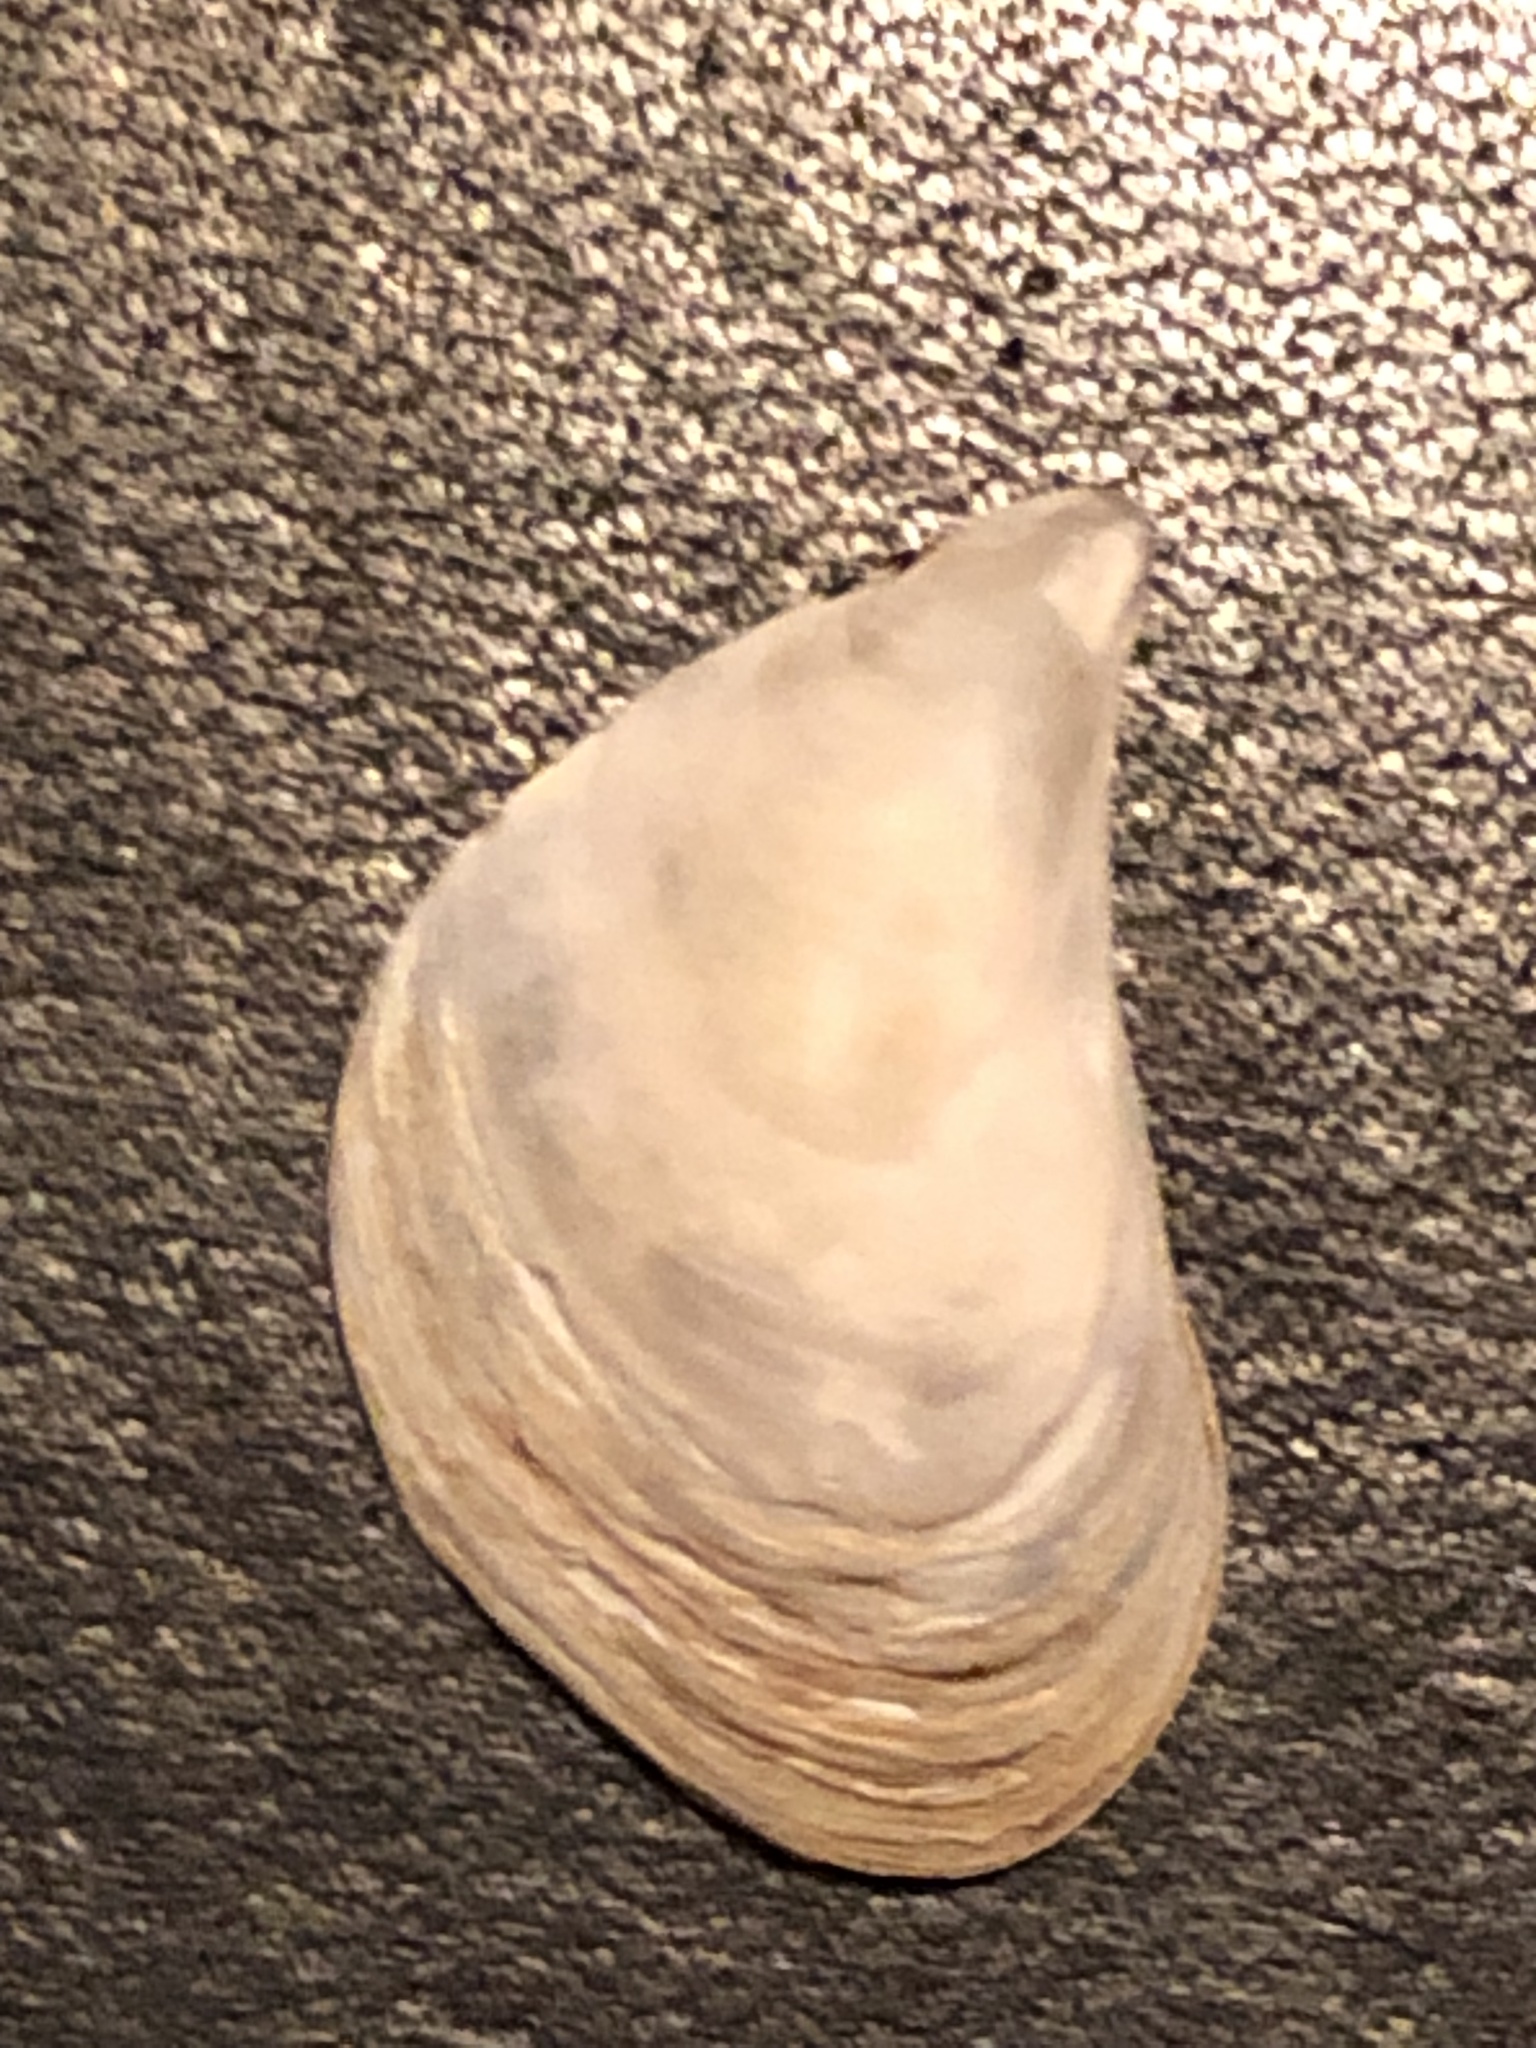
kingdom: Animalia
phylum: Mollusca
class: Bivalvia
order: Myida
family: Dreissenidae
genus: Dreissena
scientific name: Dreissena bugensis
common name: Quagga mussel
